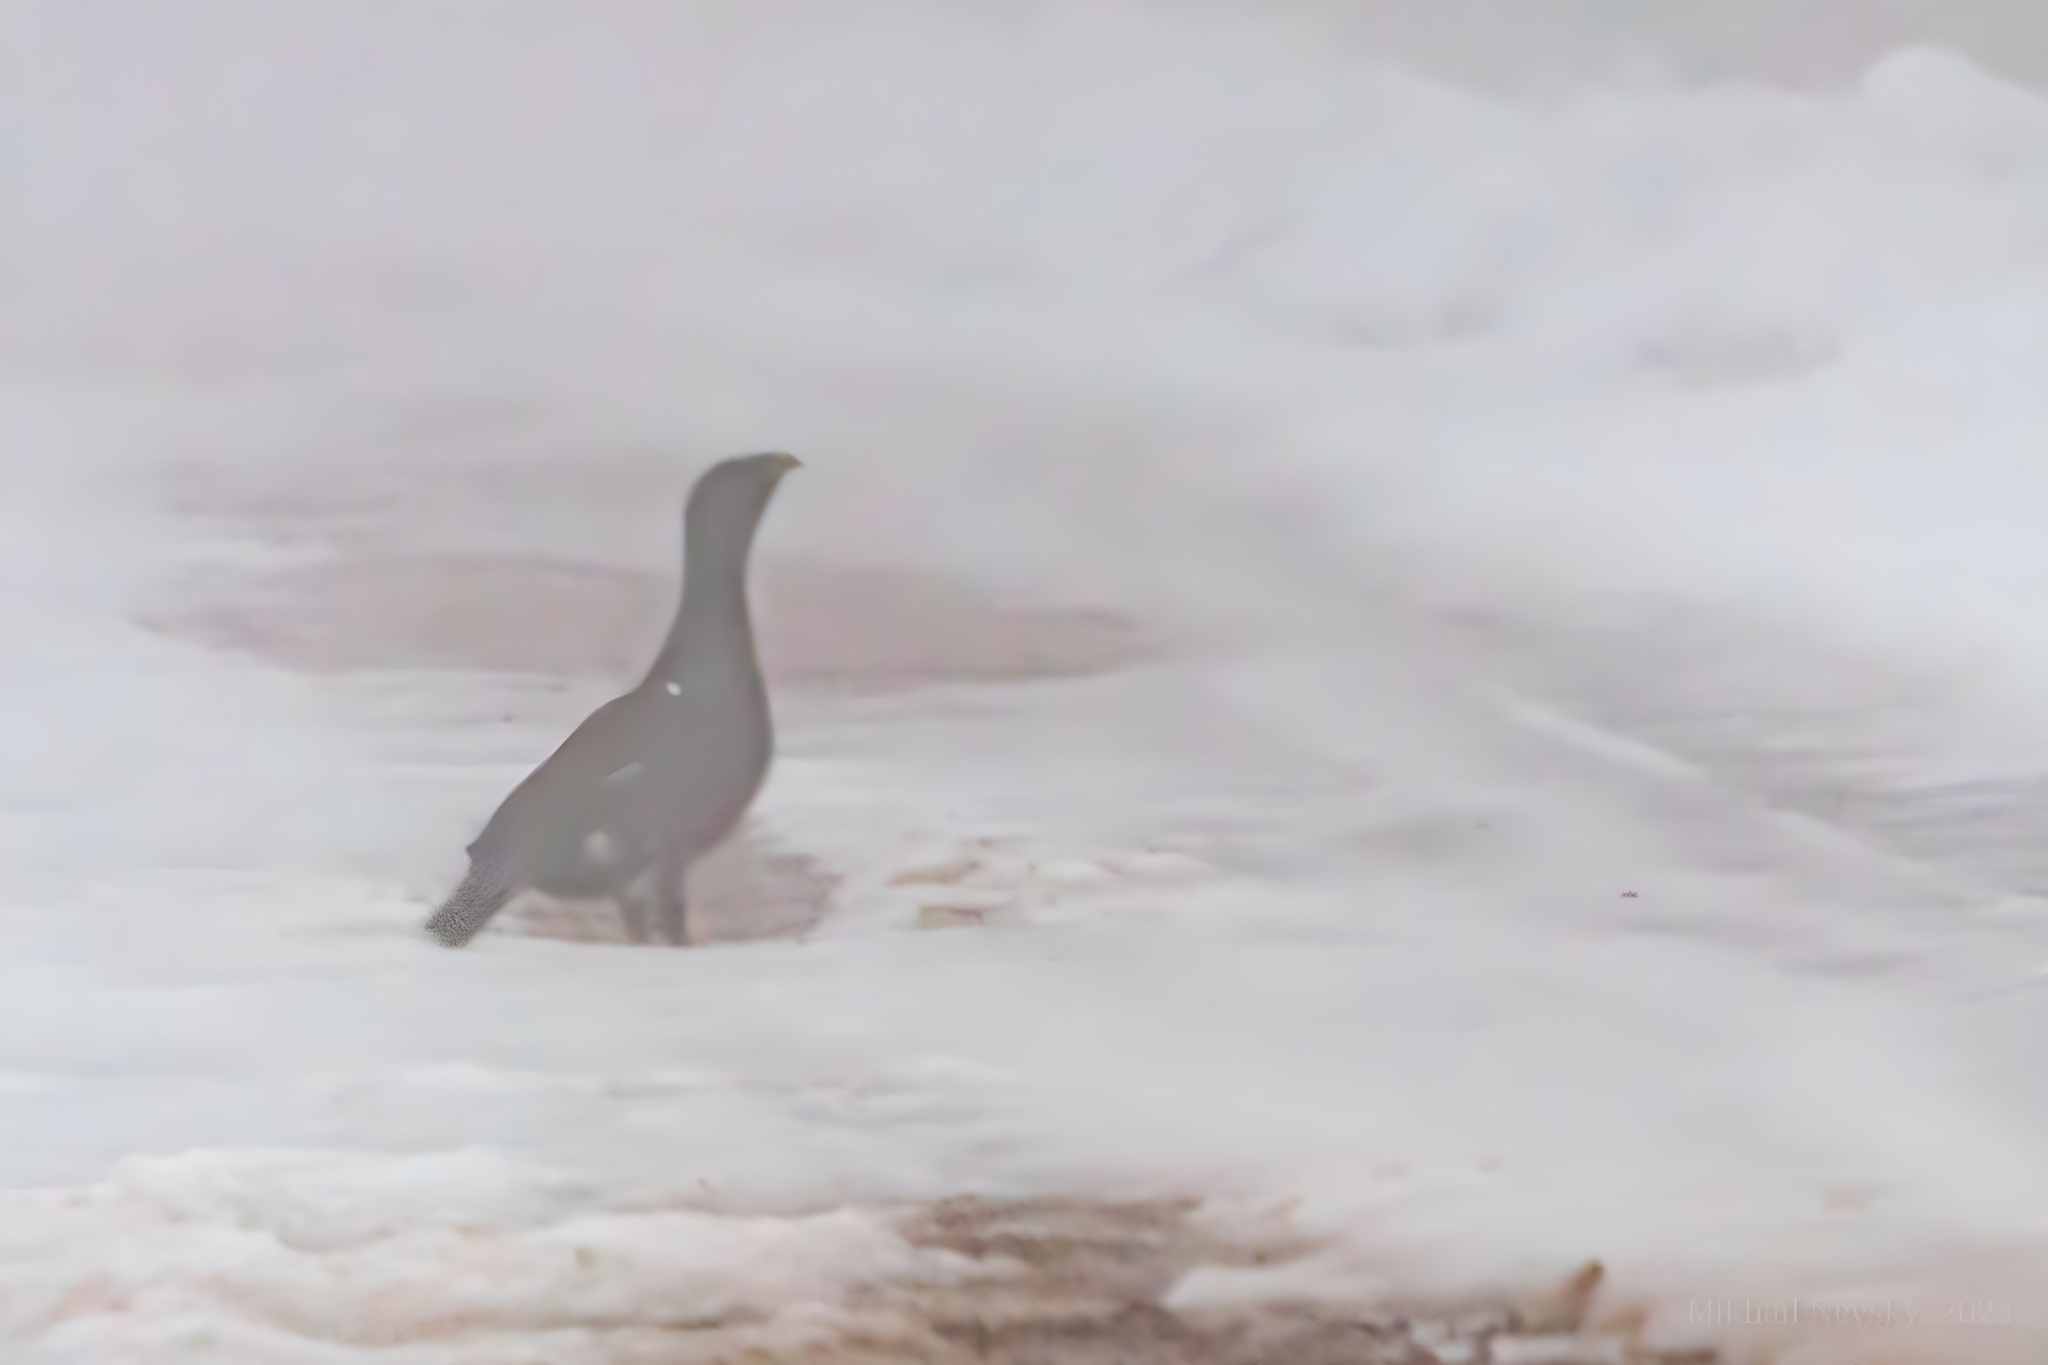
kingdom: Animalia
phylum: Chordata
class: Aves
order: Galliformes
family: Phasianidae
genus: Tetrao
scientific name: Tetrao urogallus
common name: Western capercaillie
